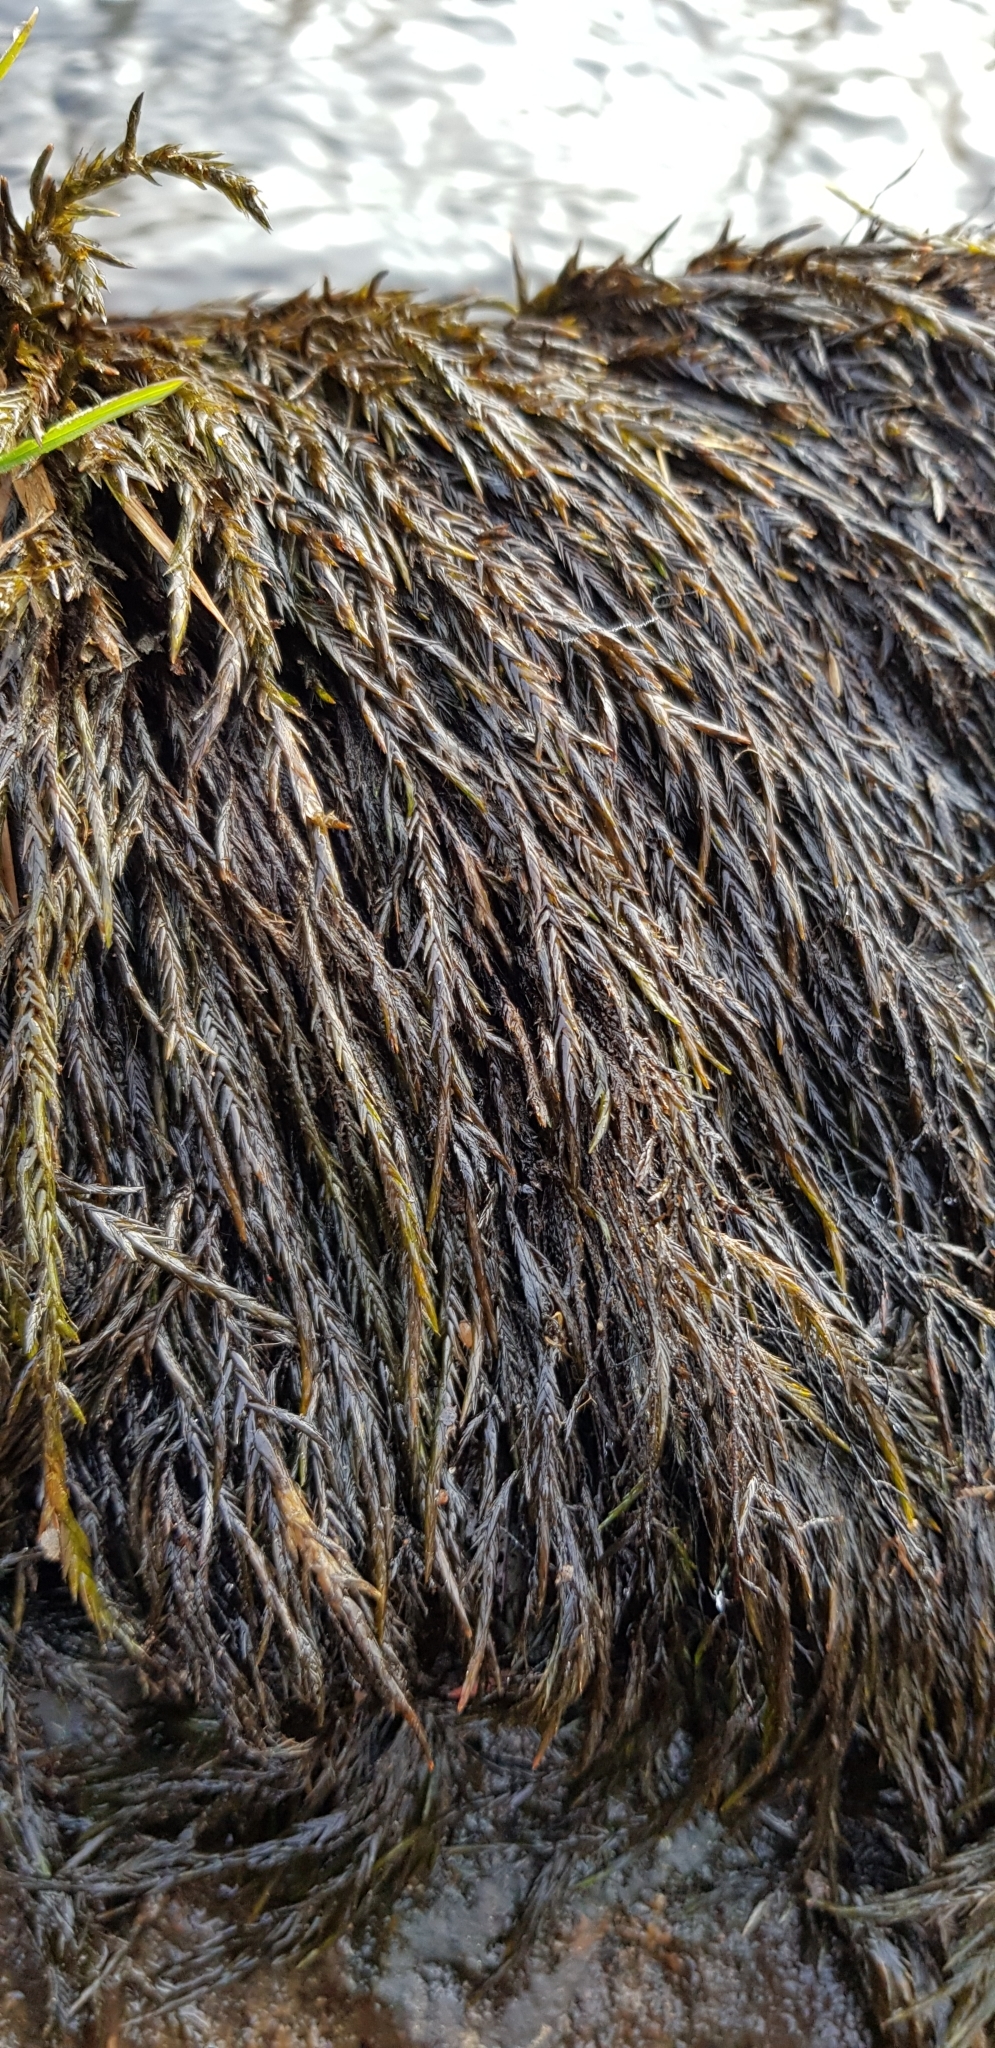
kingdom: Plantae
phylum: Bryophyta
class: Bryopsida
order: Hypnales
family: Fontinalaceae
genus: Fontinalis
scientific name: Fontinalis squamosa
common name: Alpine water-moss
